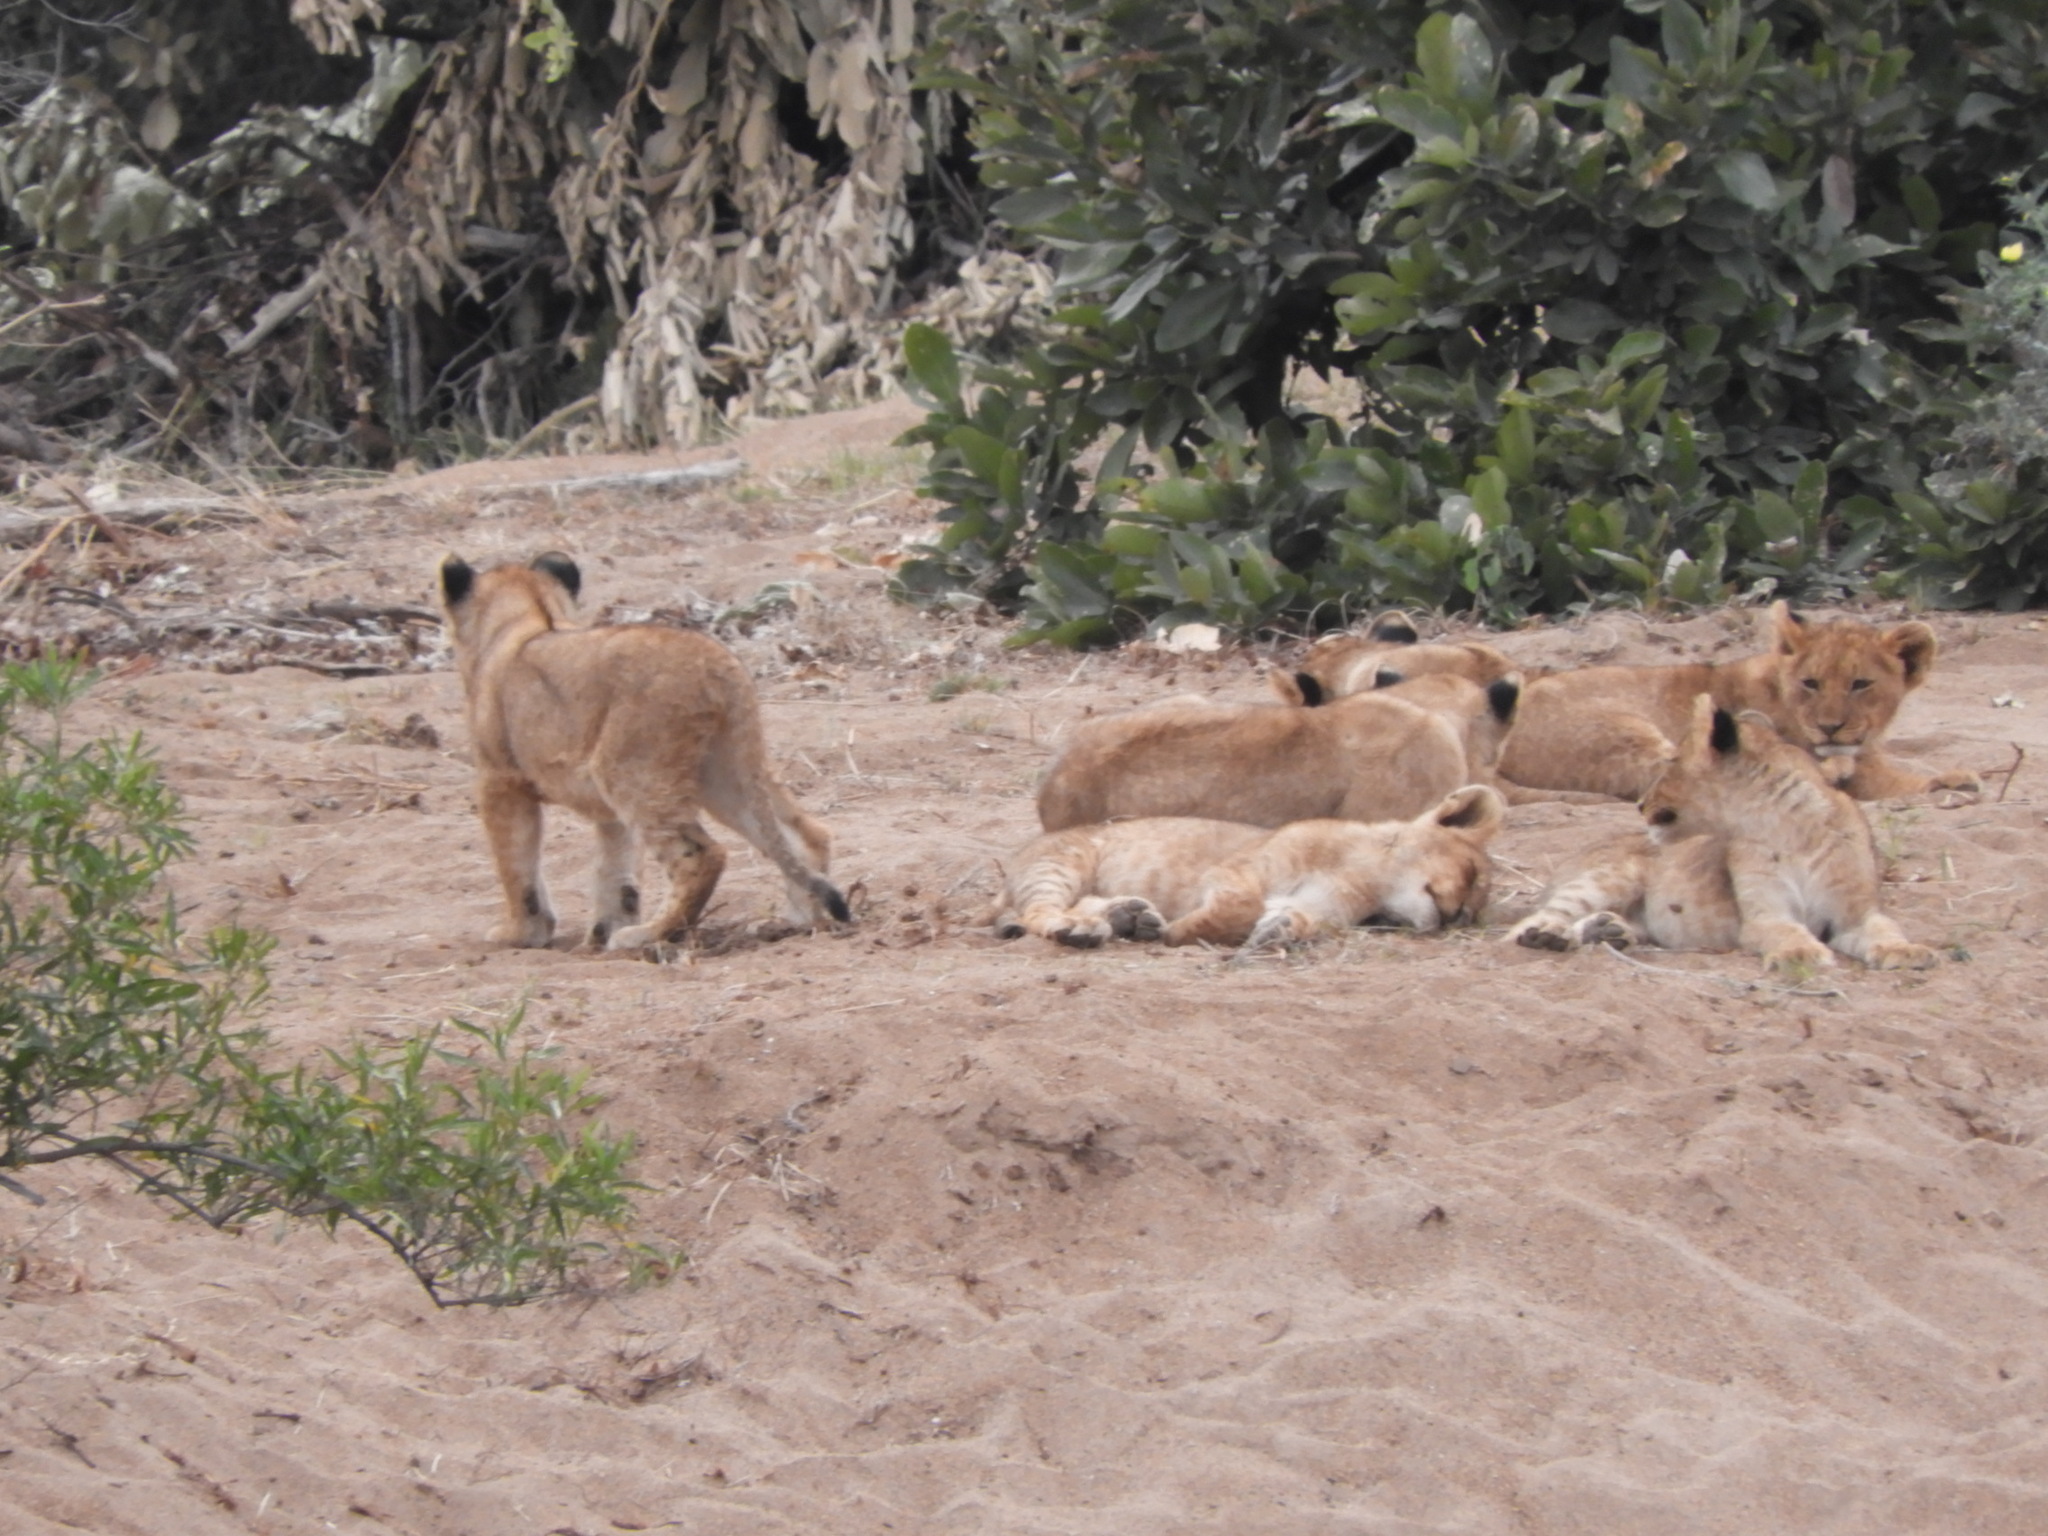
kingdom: Animalia
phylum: Chordata
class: Mammalia
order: Carnivora
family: Felidae
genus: Panthera
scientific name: Panthera leo
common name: Lion
